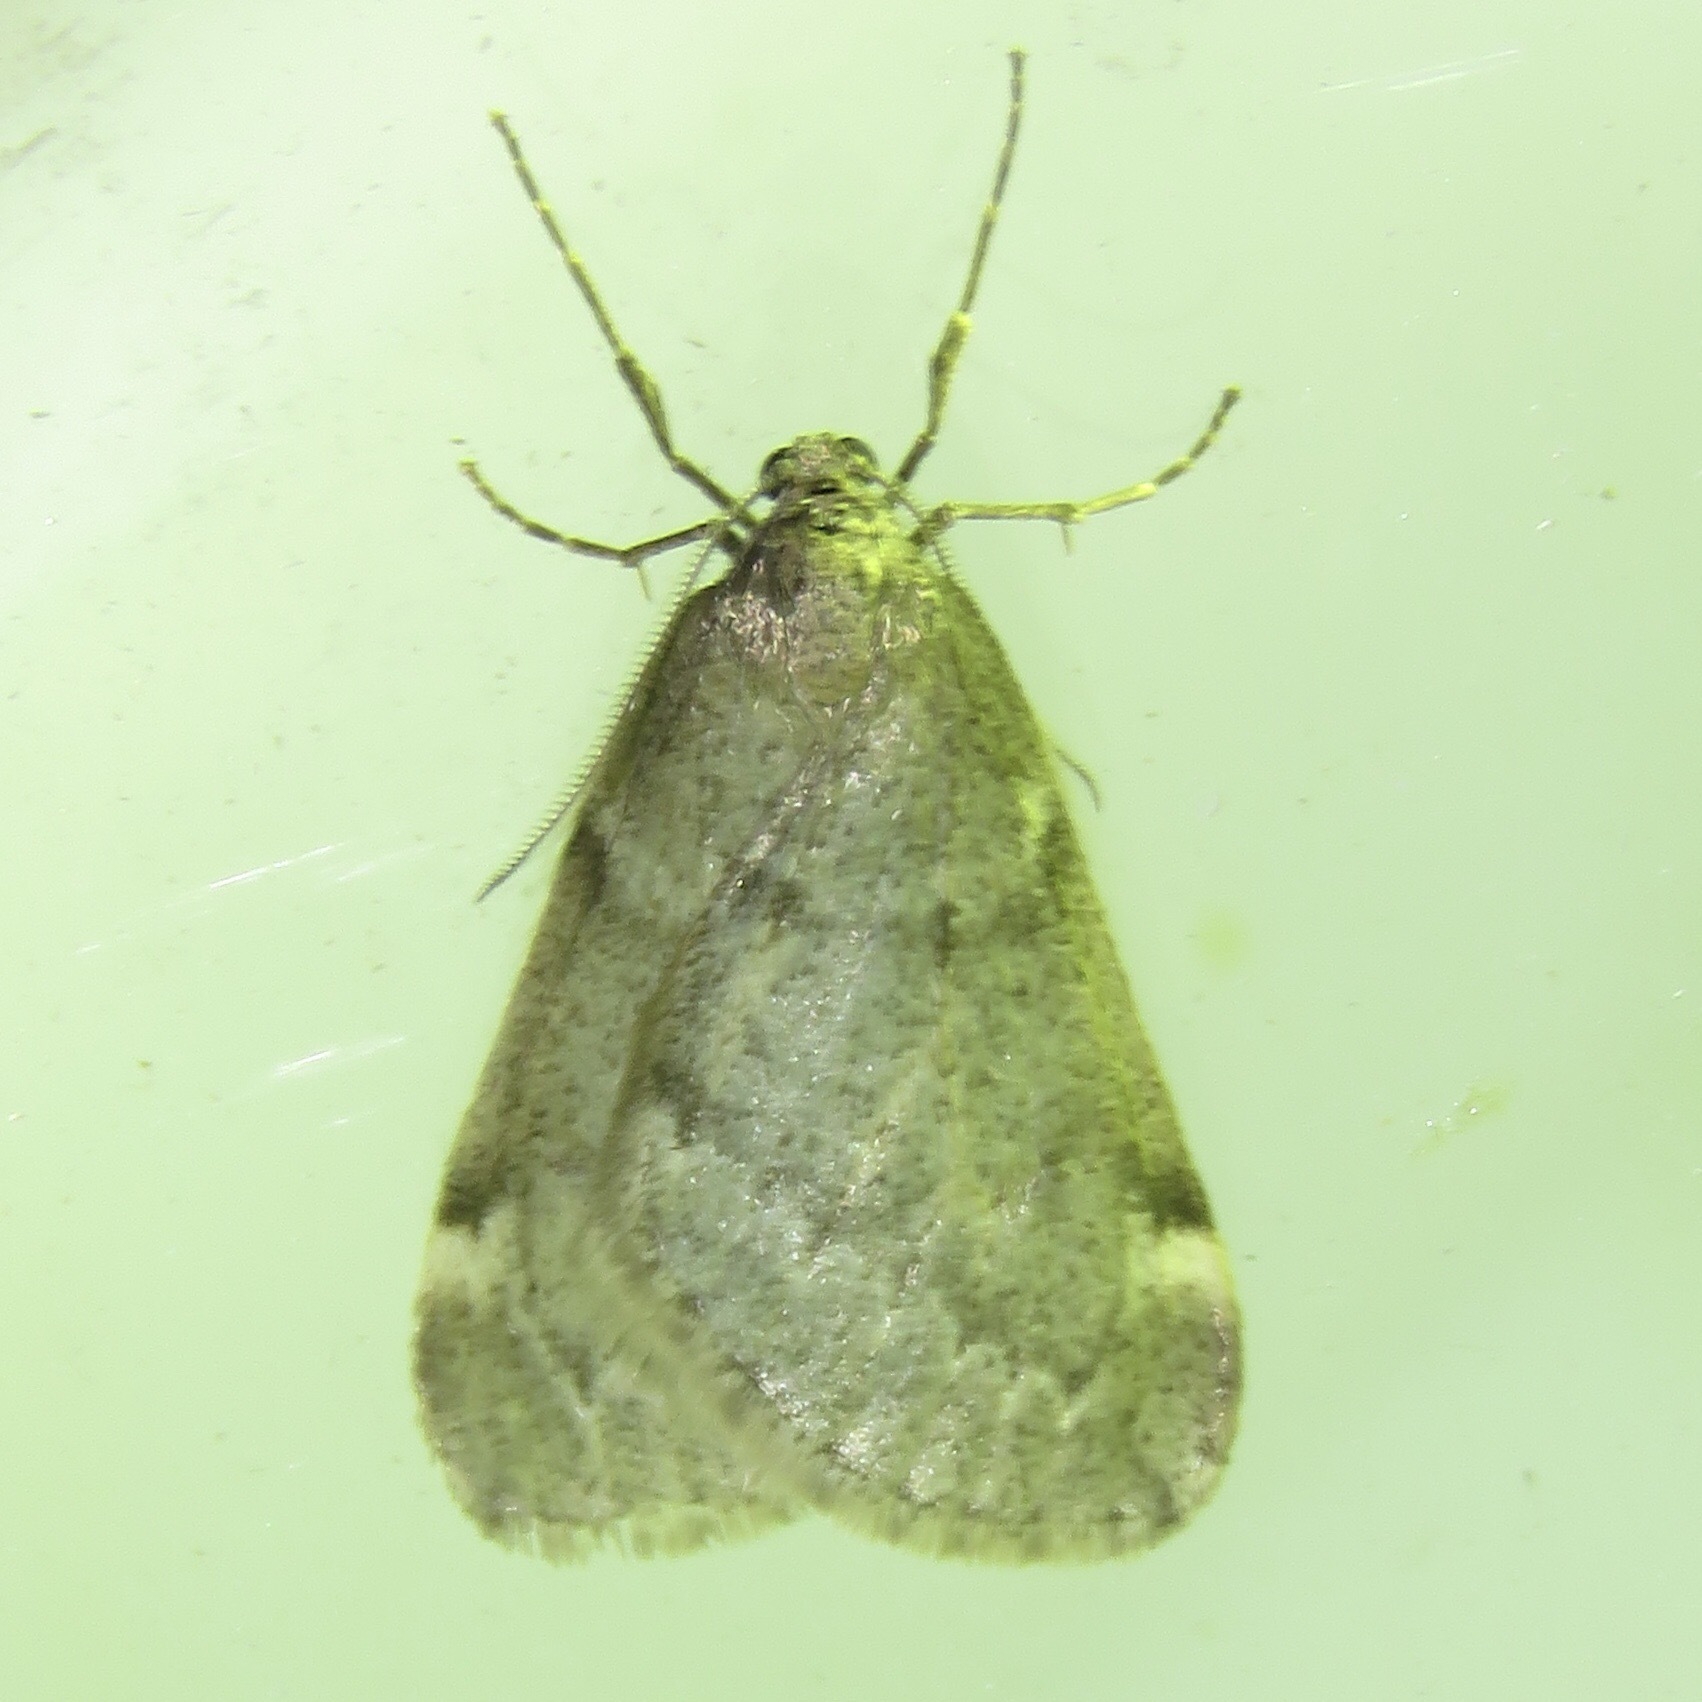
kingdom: Animalia
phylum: Arthropoda
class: Insecta
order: Lepidoptera
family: Geometridae
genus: Alsophila
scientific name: Alsophila pometaria
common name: Fall cankerworm
